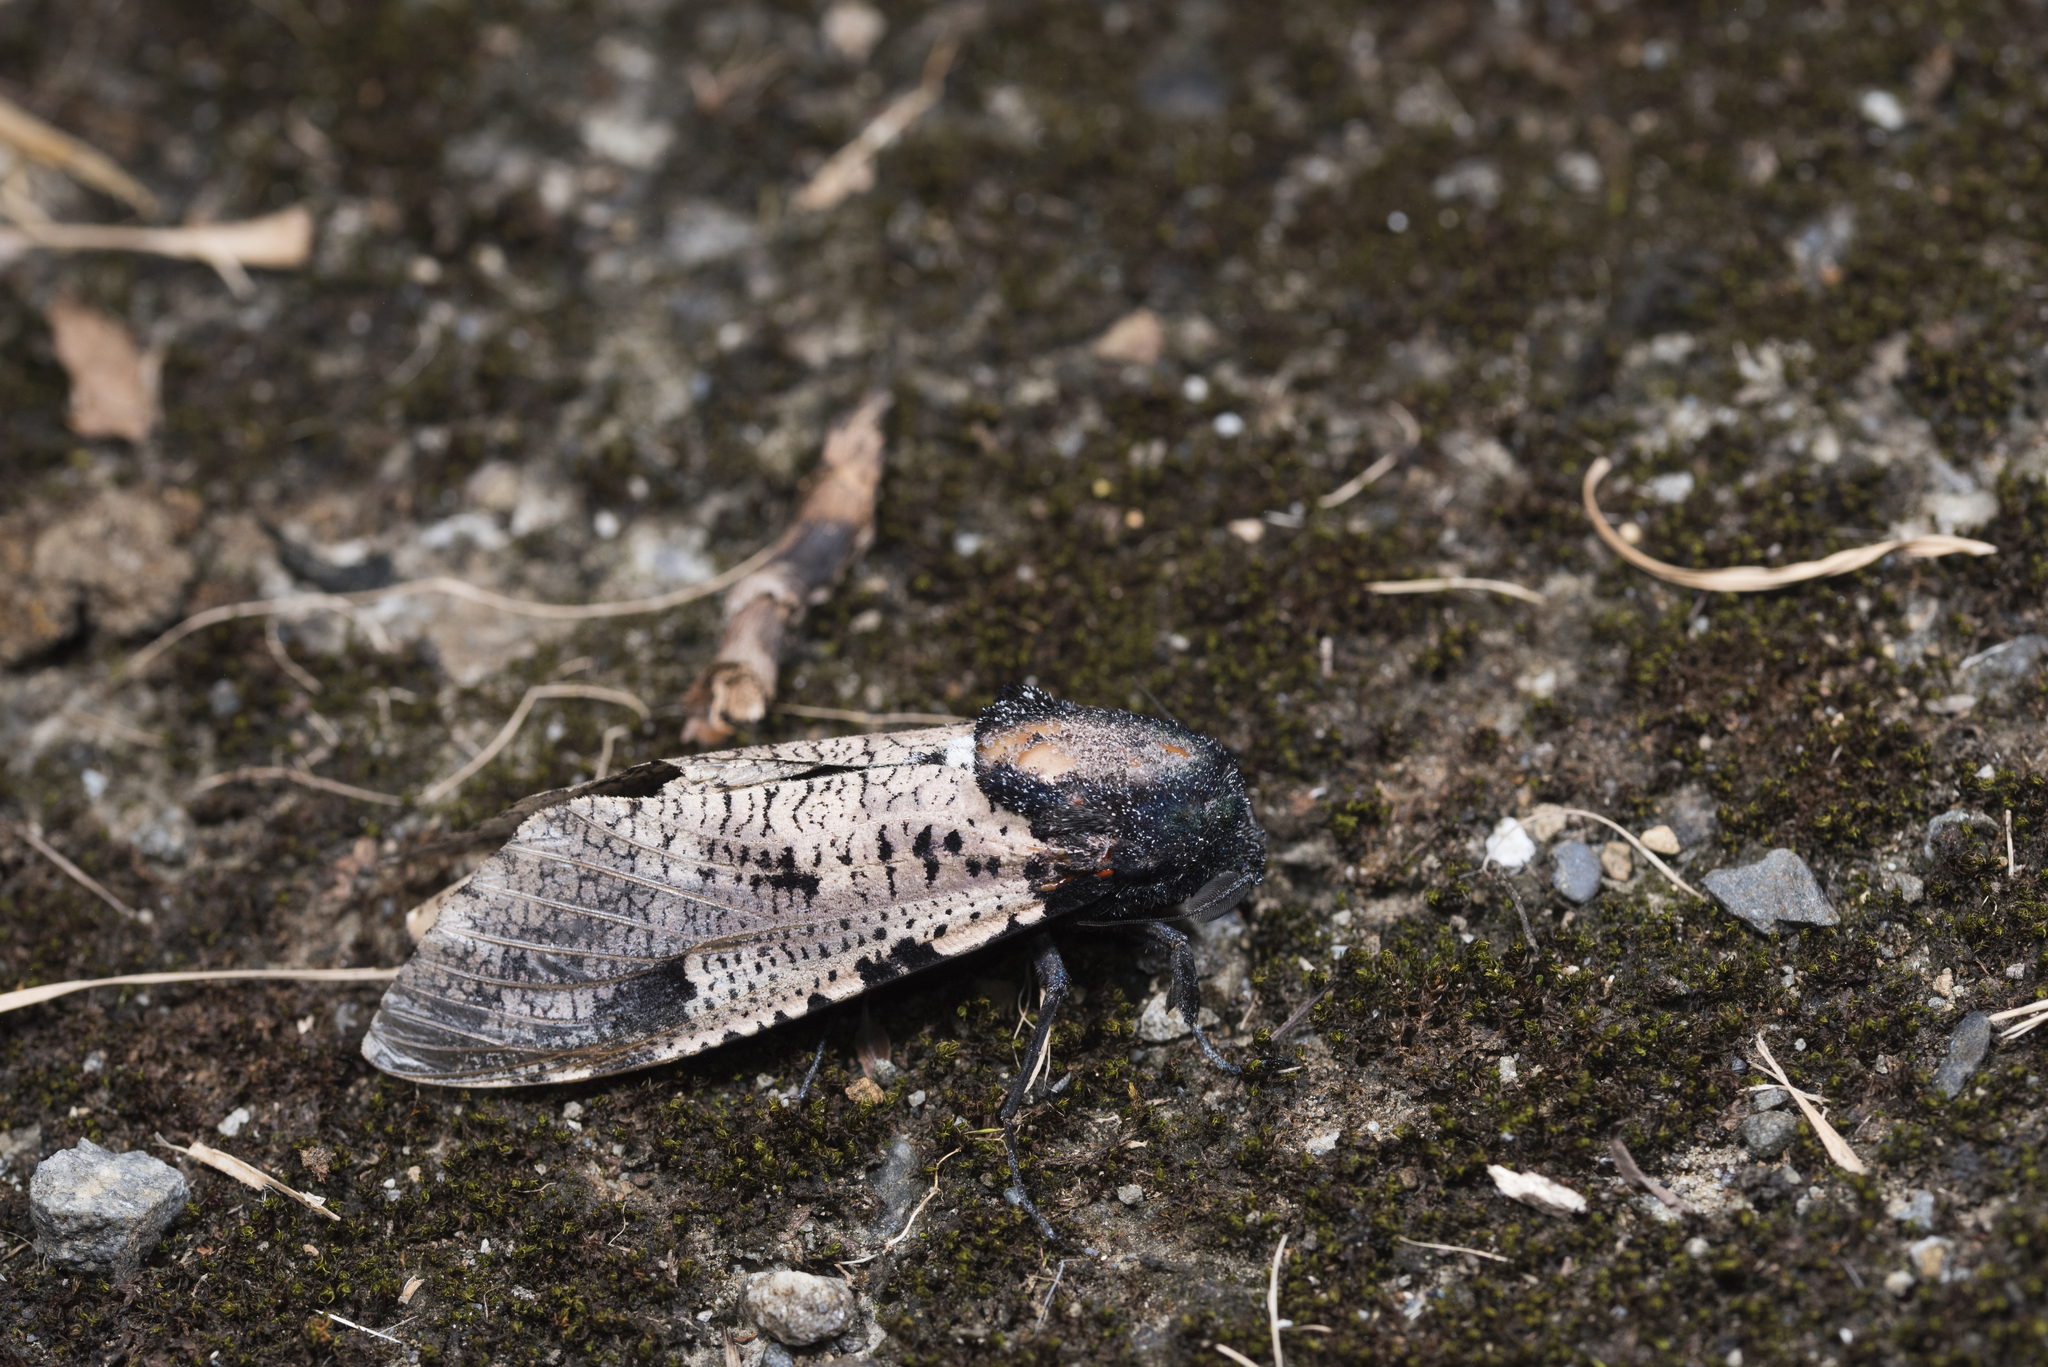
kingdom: Animalia
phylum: Arthropoda
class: Insecta
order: Lepidoptera
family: Cossidae
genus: Xyleutes
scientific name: Xyleutes strix
